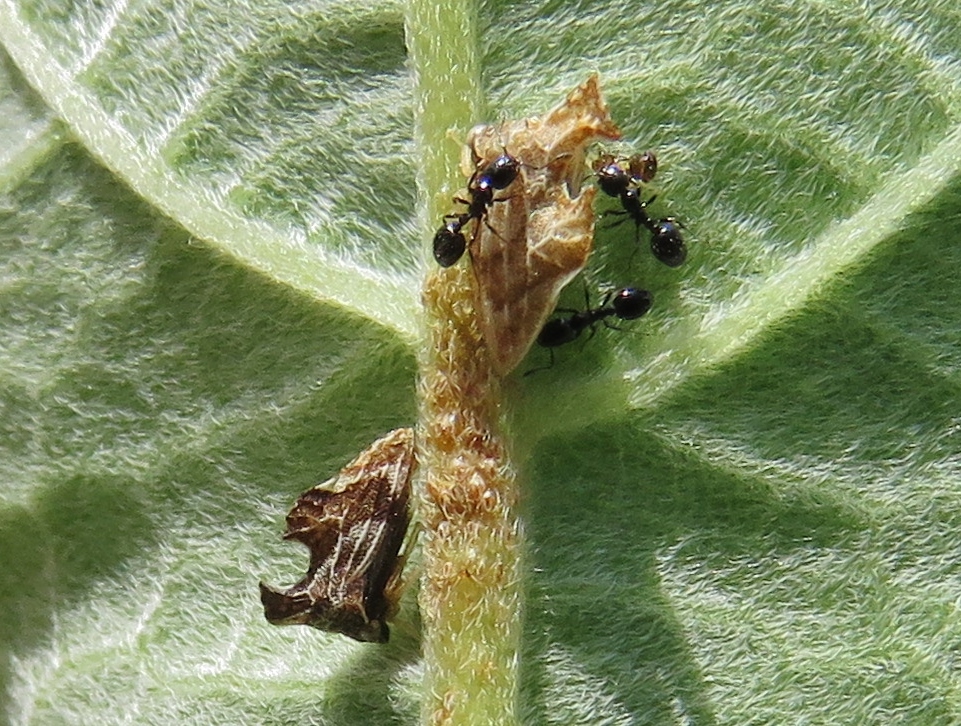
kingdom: Animalia
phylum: Arthropoda
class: Insecta
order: Hemiptera
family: Membracidae
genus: Entylia
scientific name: Entylia carinata
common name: Keeled treehopper
